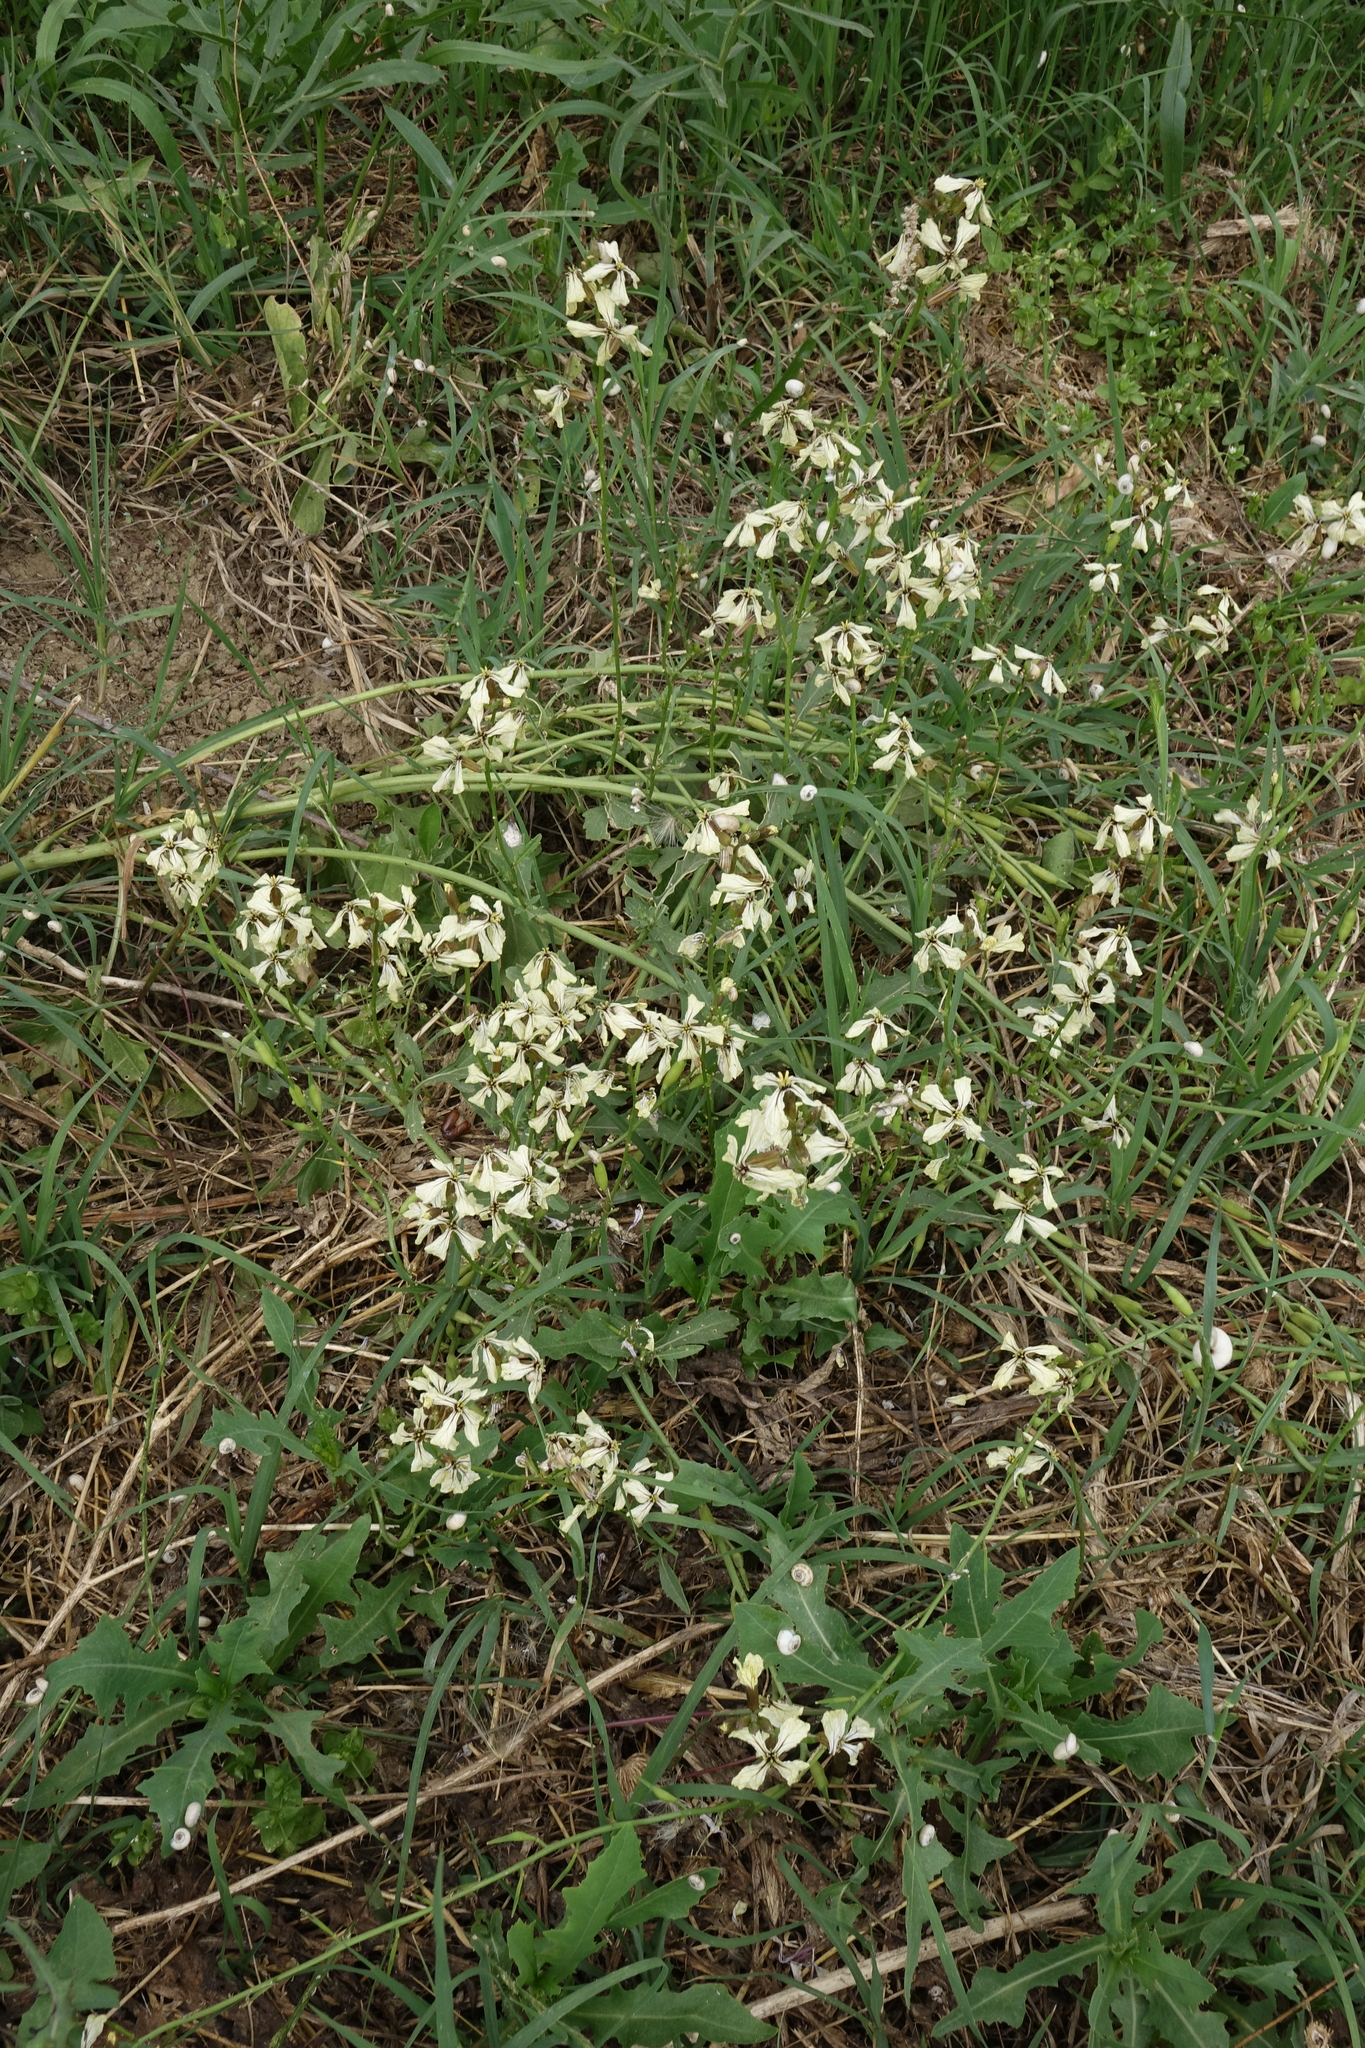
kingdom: Plantae
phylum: Tracheophyta
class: Magnoliopsida
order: Brassicales
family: Brassicaceae
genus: Eruca
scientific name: Eruca vesicaria
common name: Garden rocket
